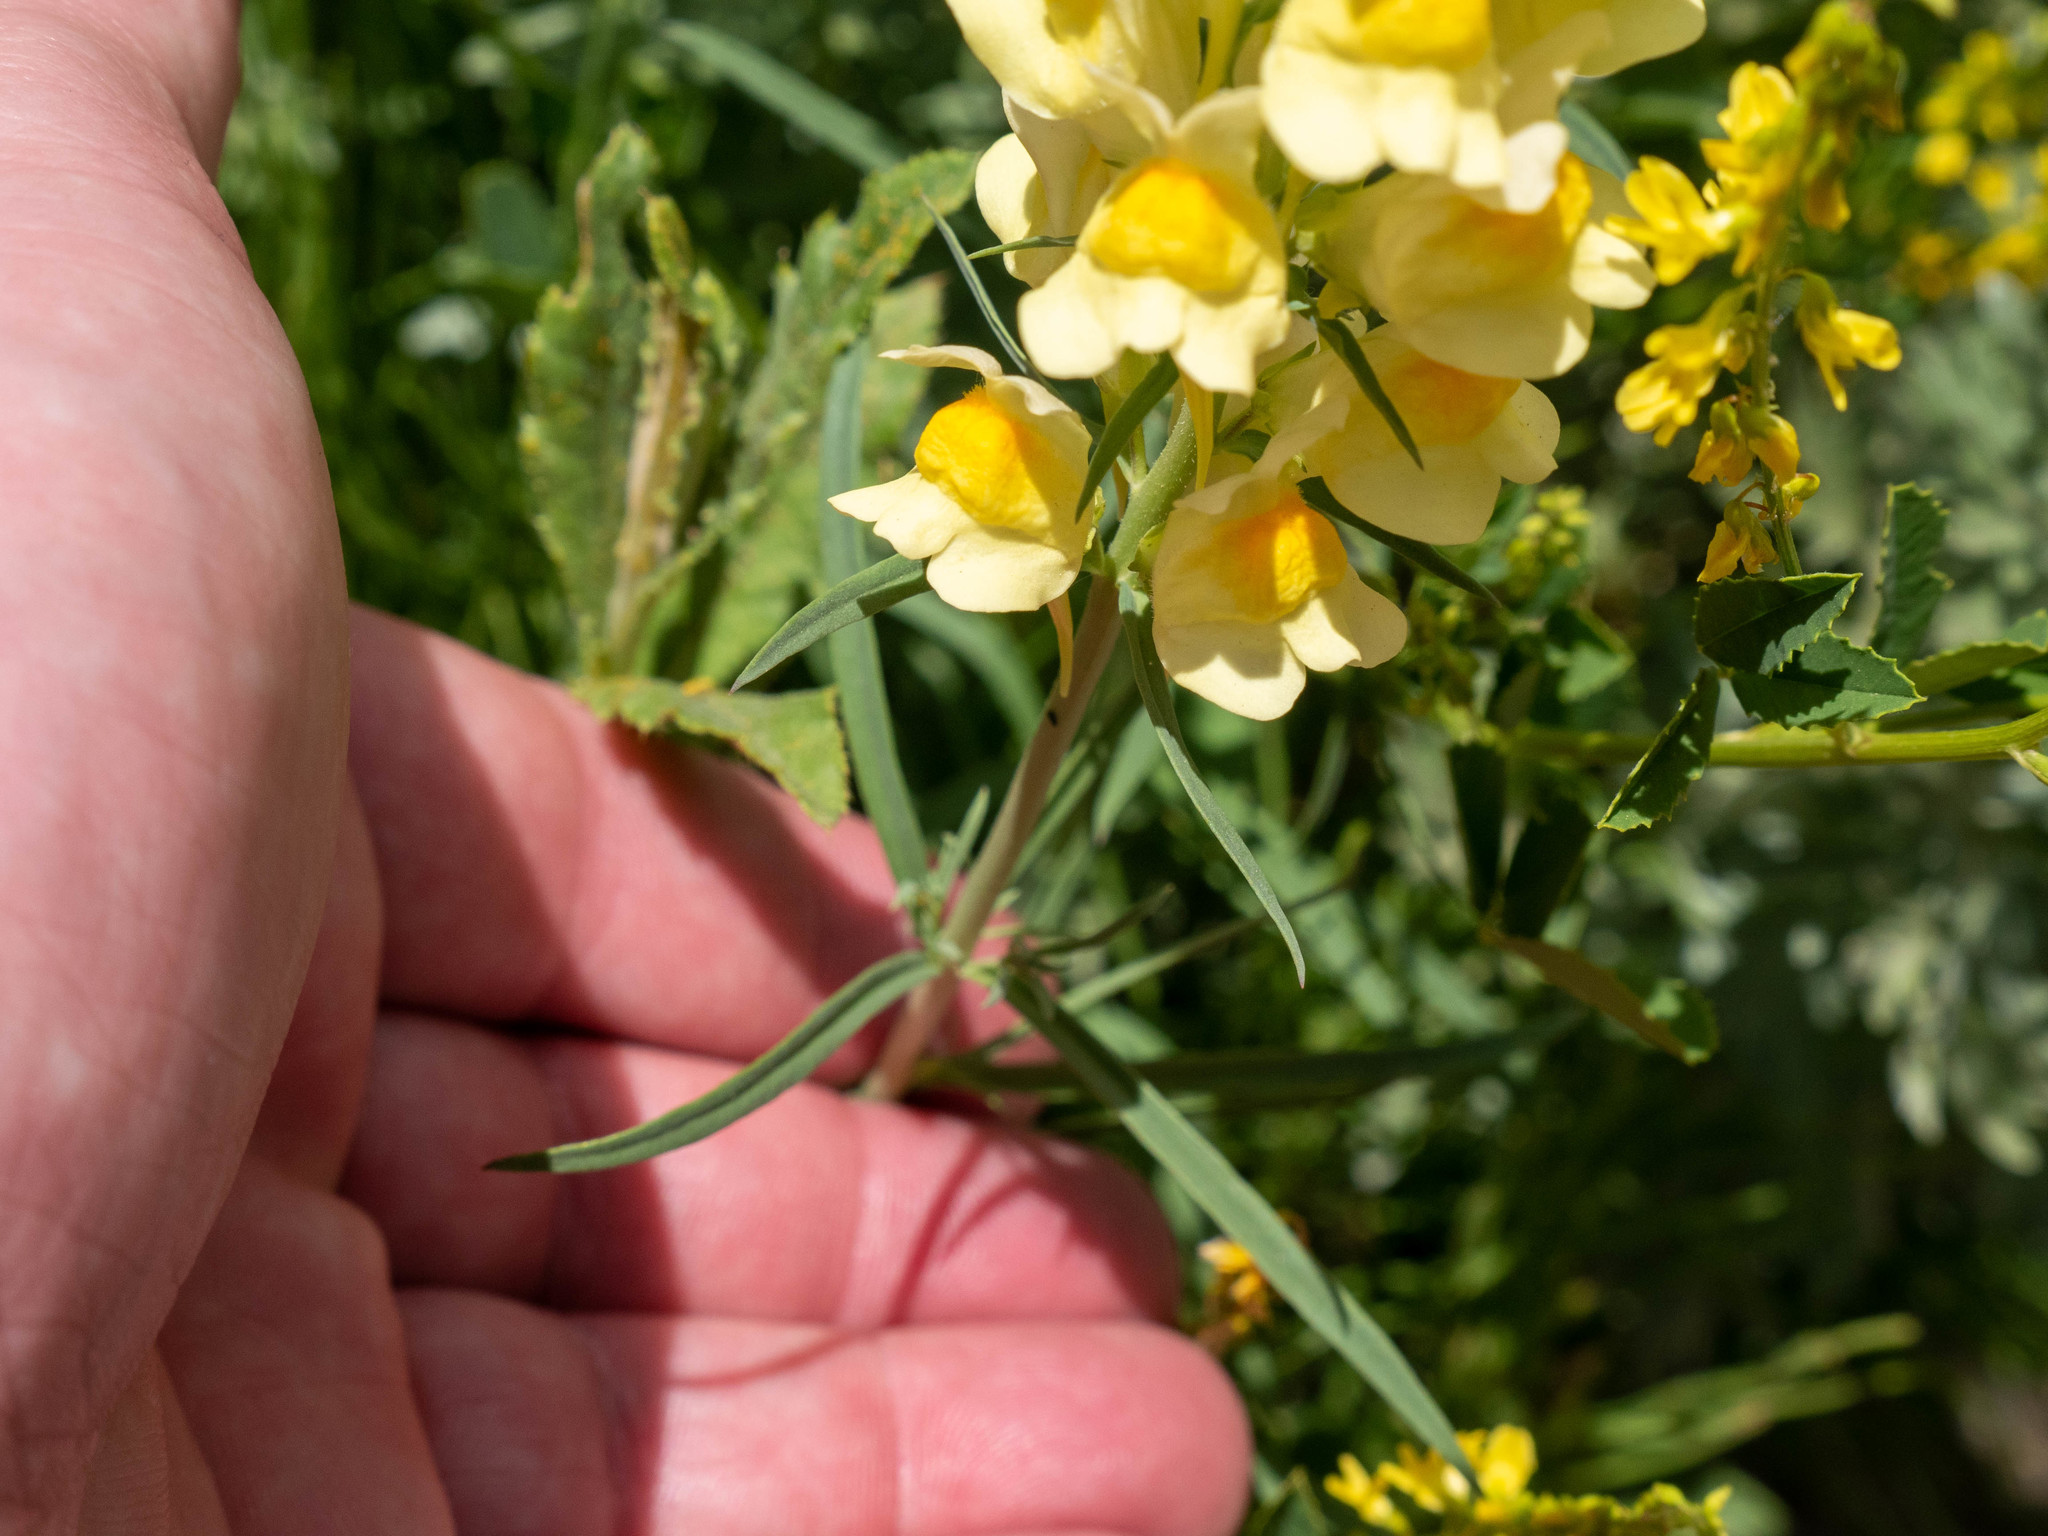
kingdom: Plantae
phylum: Tracheophyta
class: Magnoliopsida
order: Lamiales
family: Plantaginaceae
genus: Linaria
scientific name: Linaria vulgaris
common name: Butter and eggs
